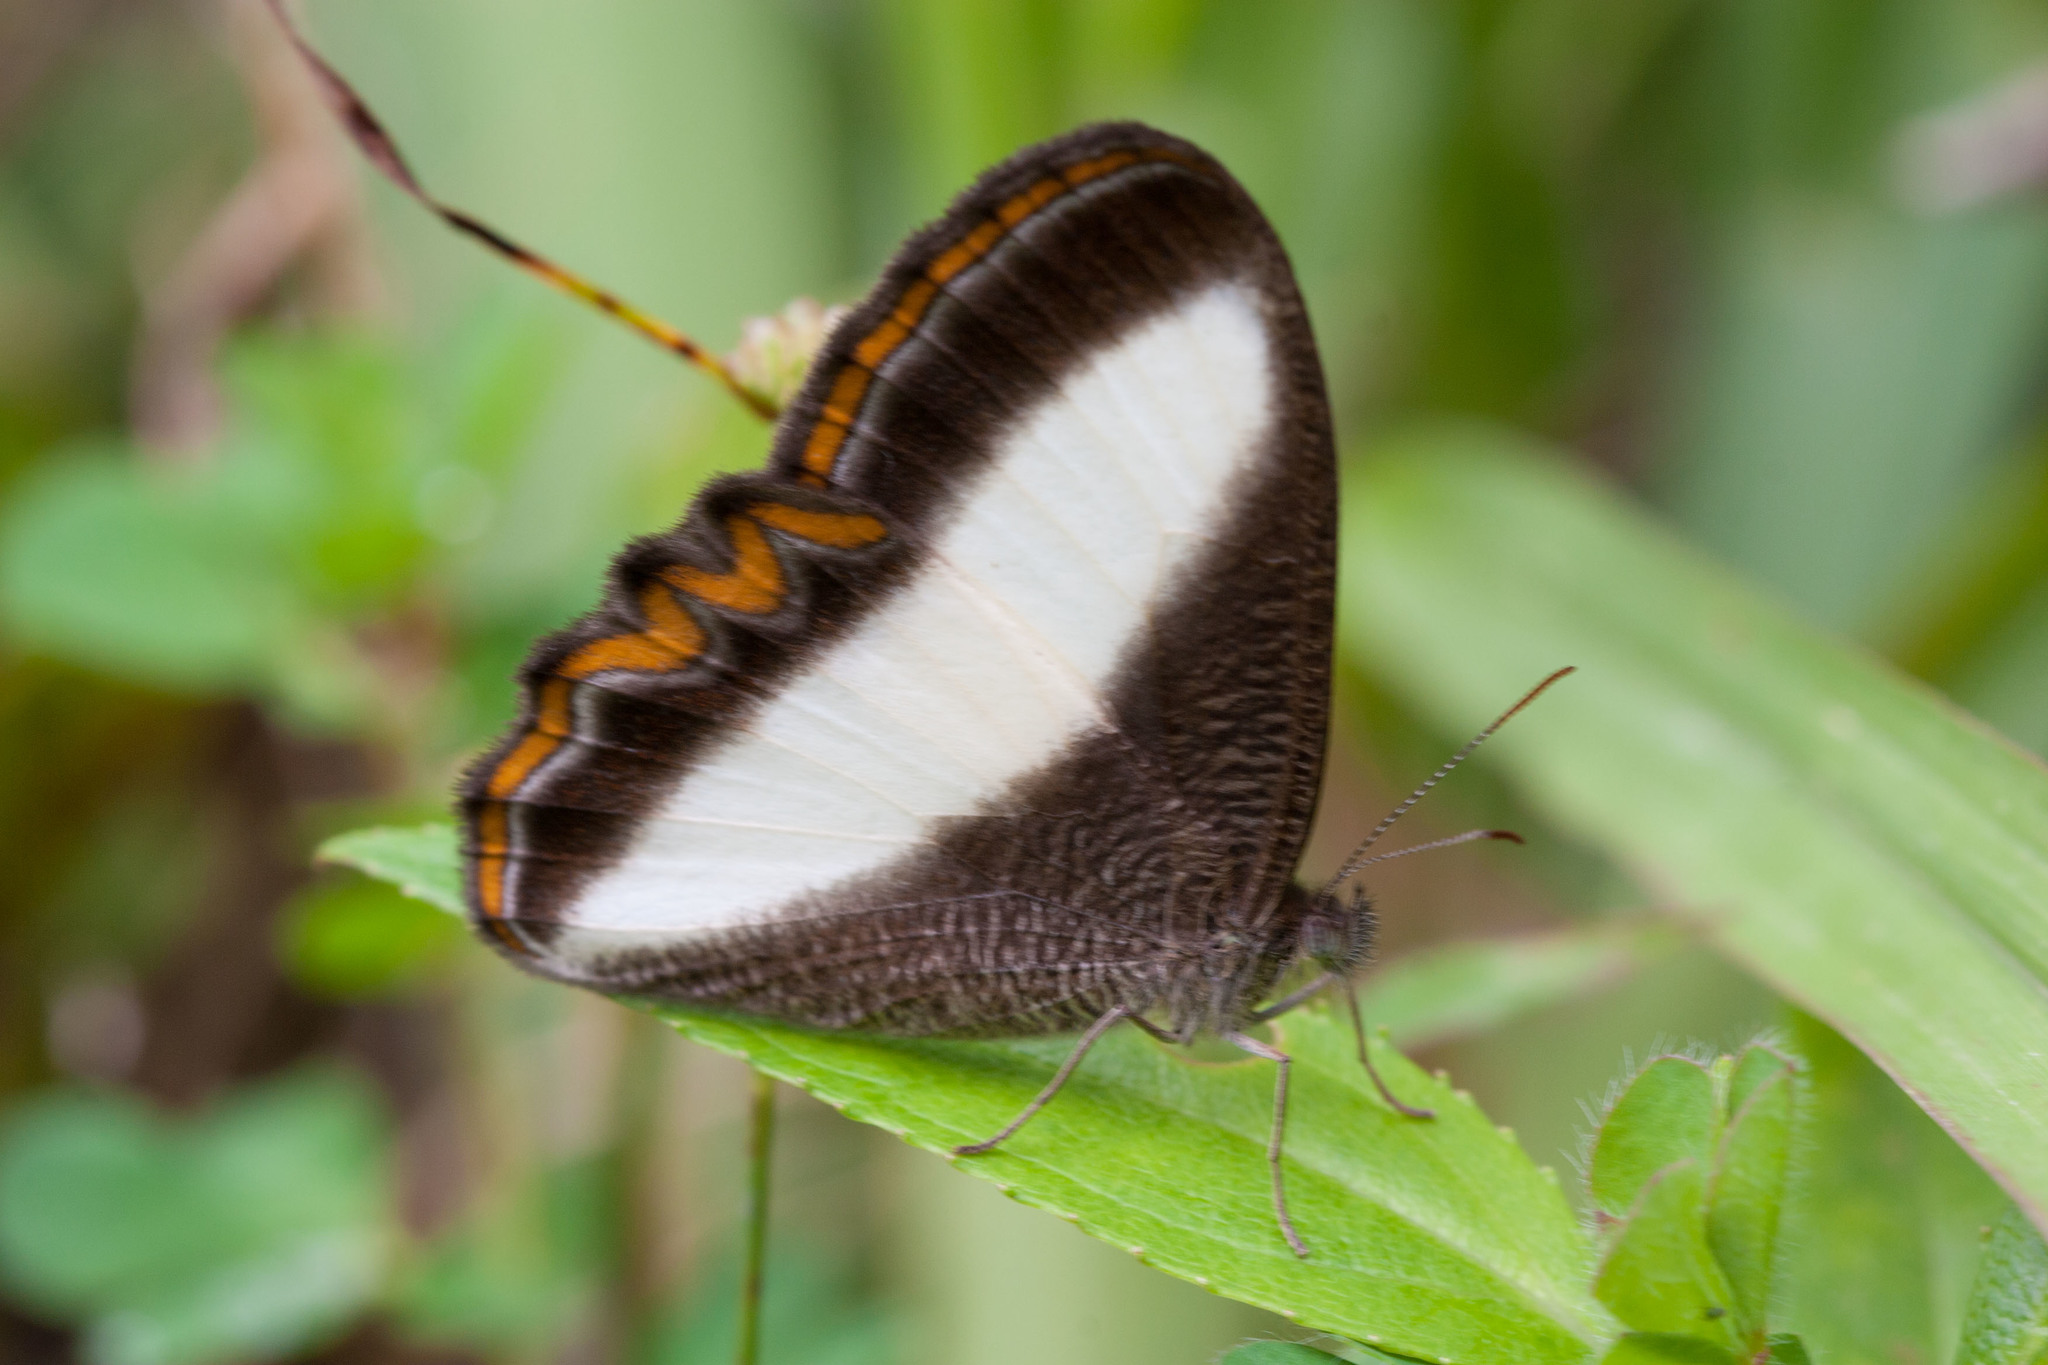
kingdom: Animalia
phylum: Arthropoda
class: Insecta
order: Lepidoptera
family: Nymphalidae
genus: Oressinoma
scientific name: Oressinoma typhla
